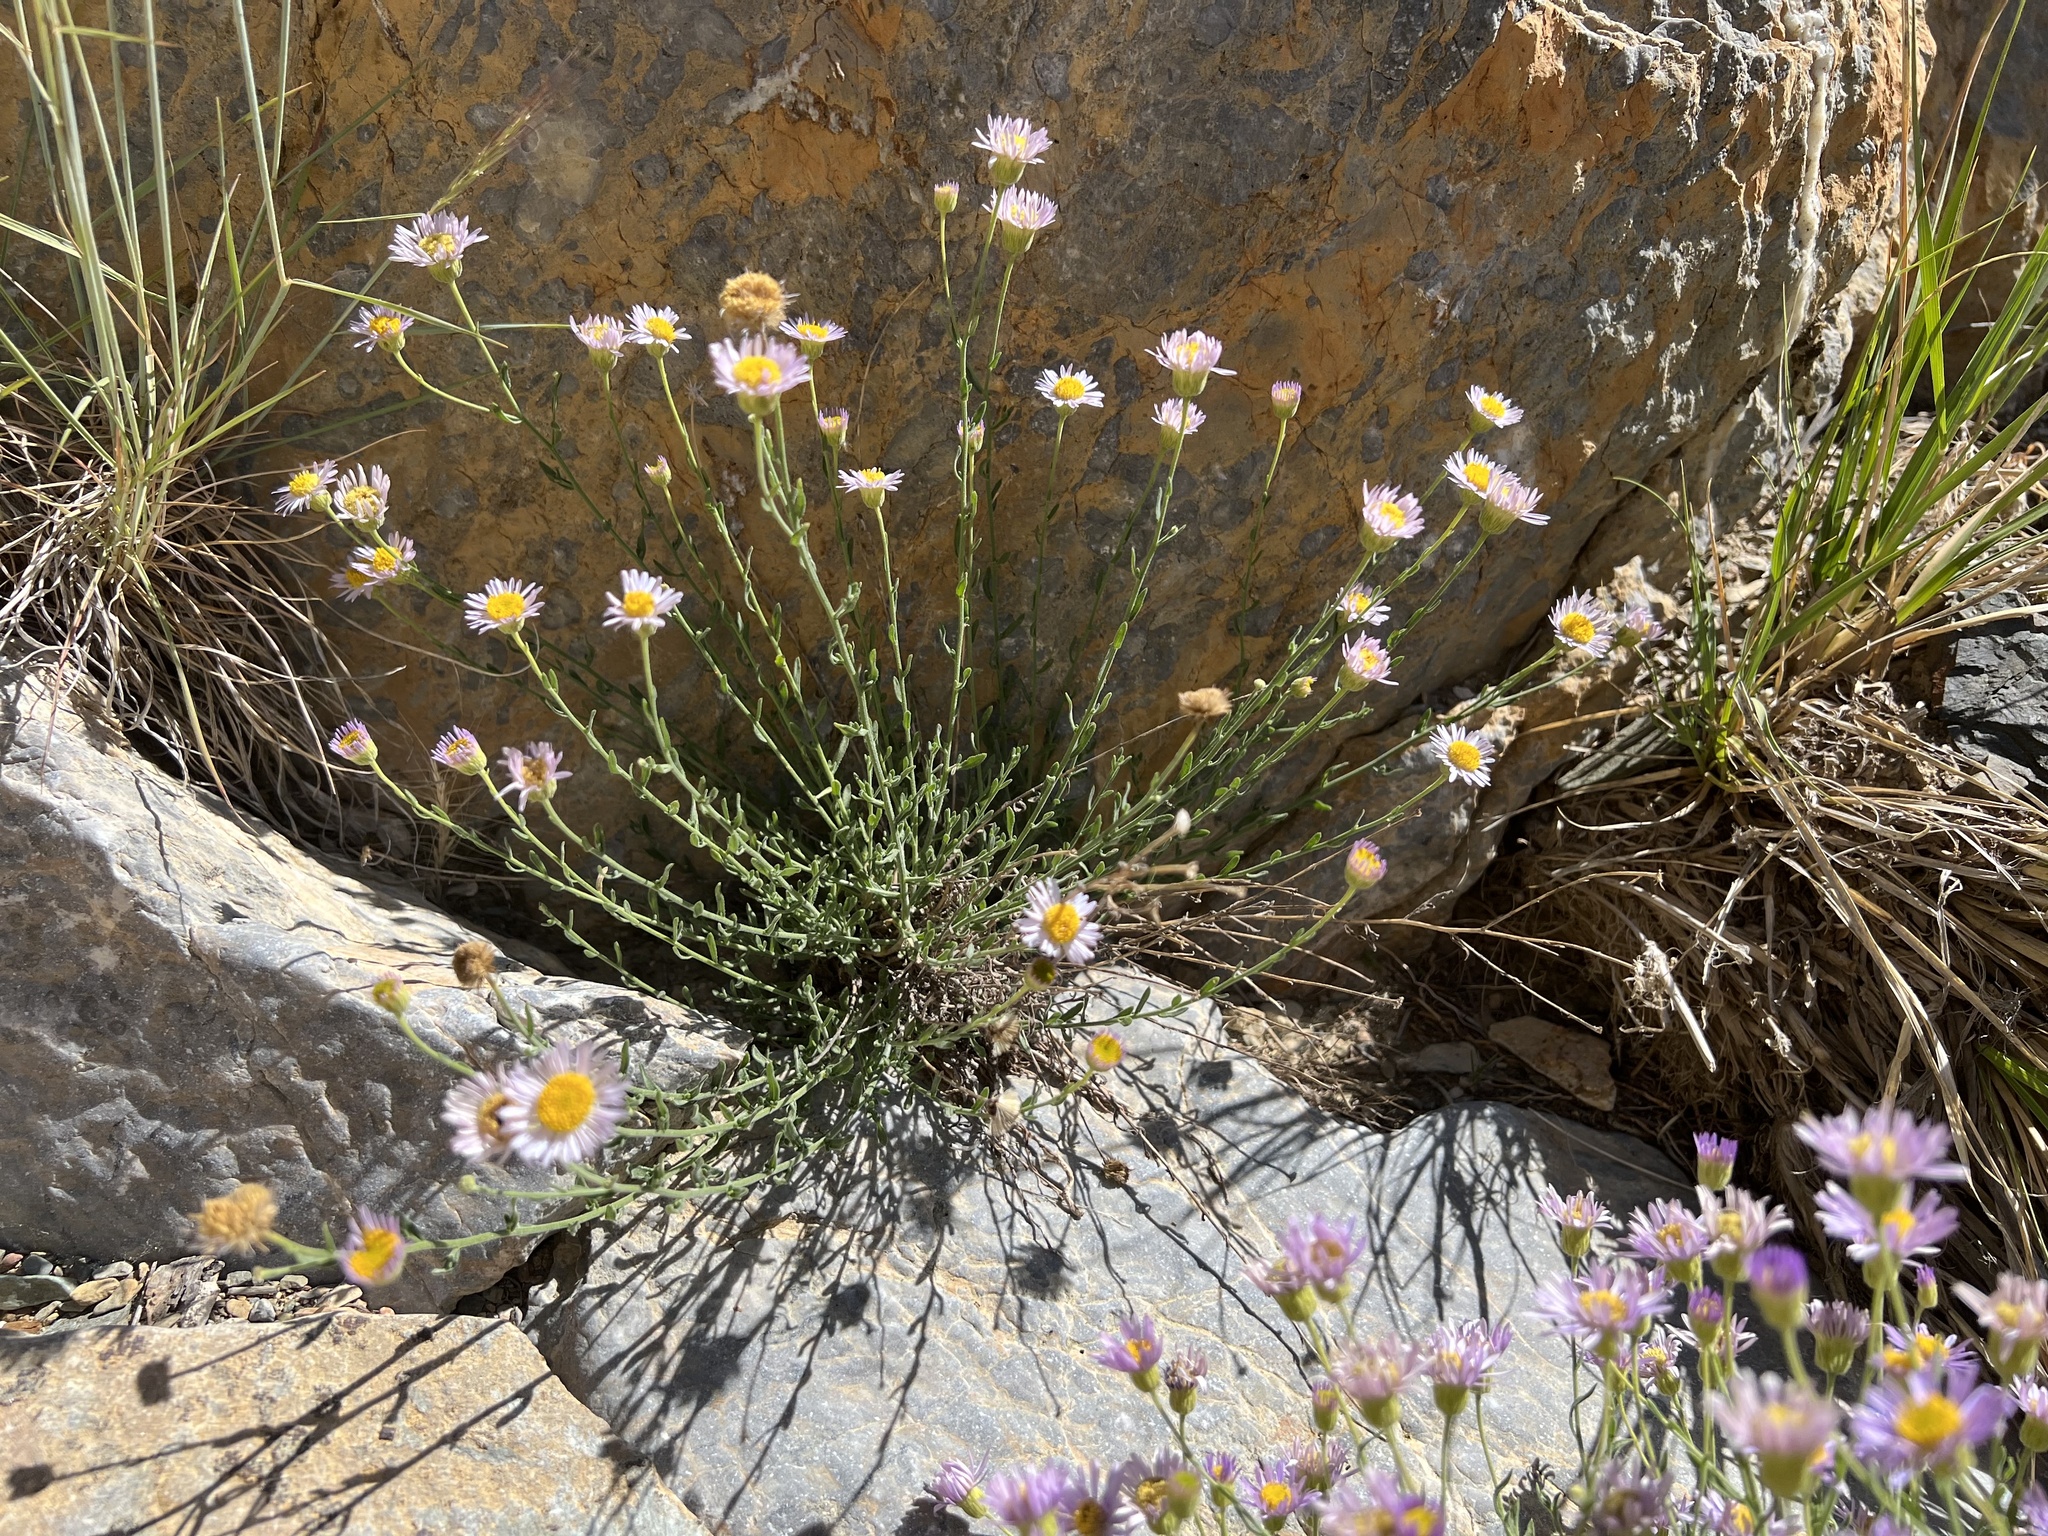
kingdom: Plantae
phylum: Tracheophyta
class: Magnoliopsida
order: Asterales
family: Asteraceae
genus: Erigeron
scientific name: Erigeron breweri
